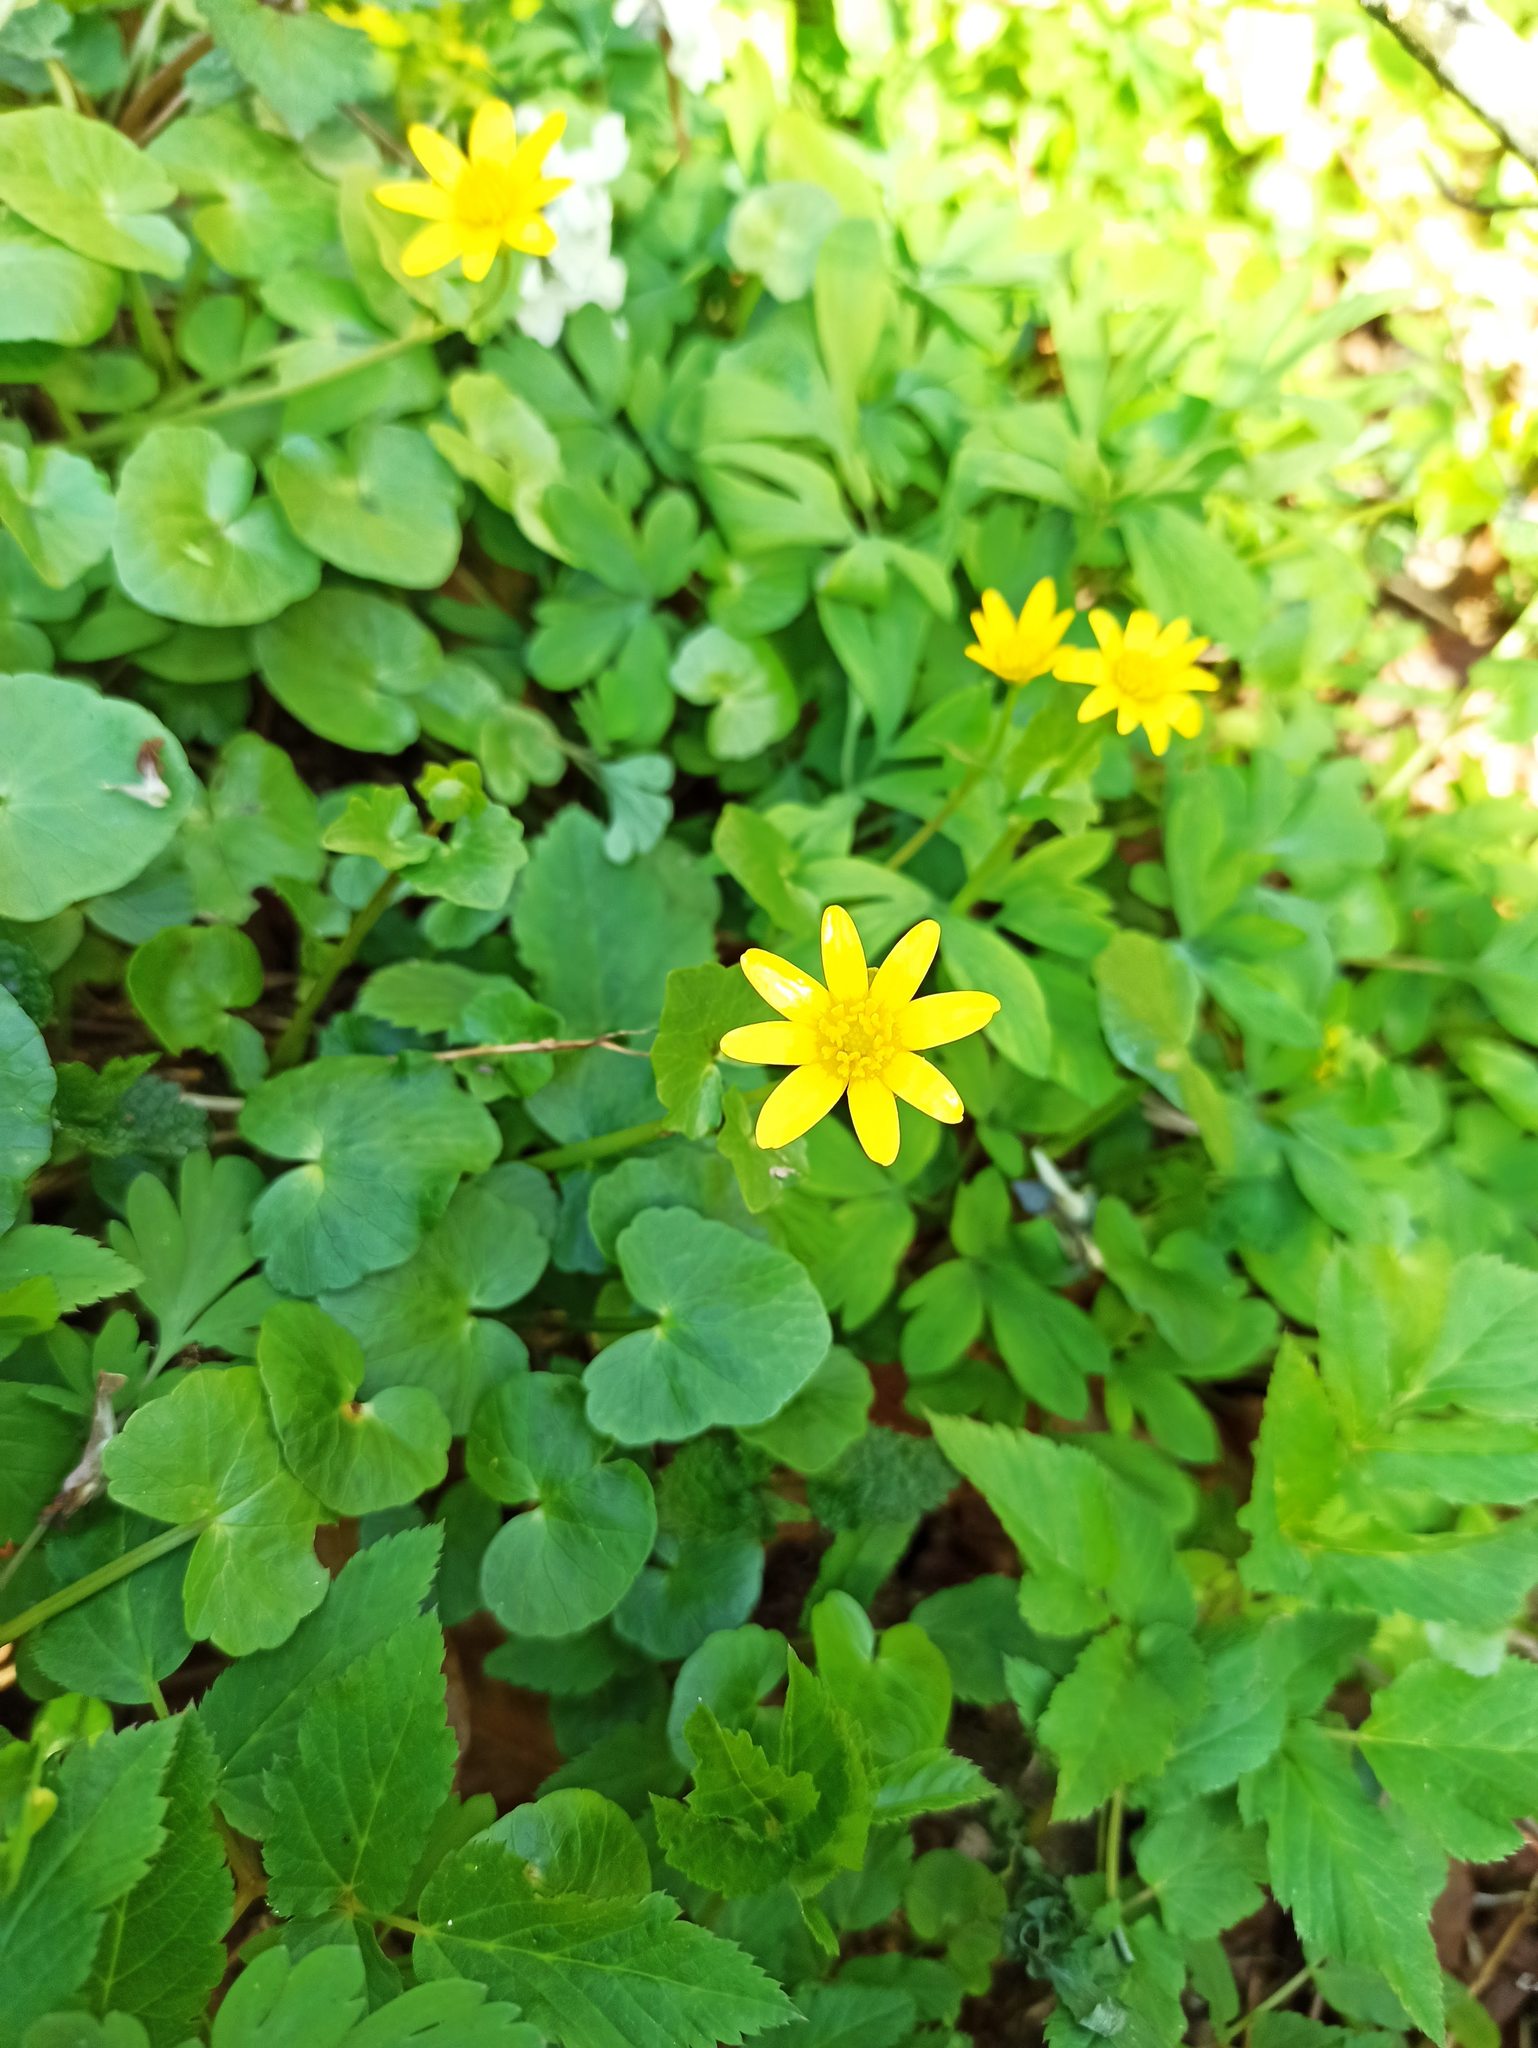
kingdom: Plantae
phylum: Tracheophyta
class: Magnoliopsida
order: Ranunculales
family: Ranunculaceae
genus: Ficaria
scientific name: Ficaria verna
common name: Lesser celandine
